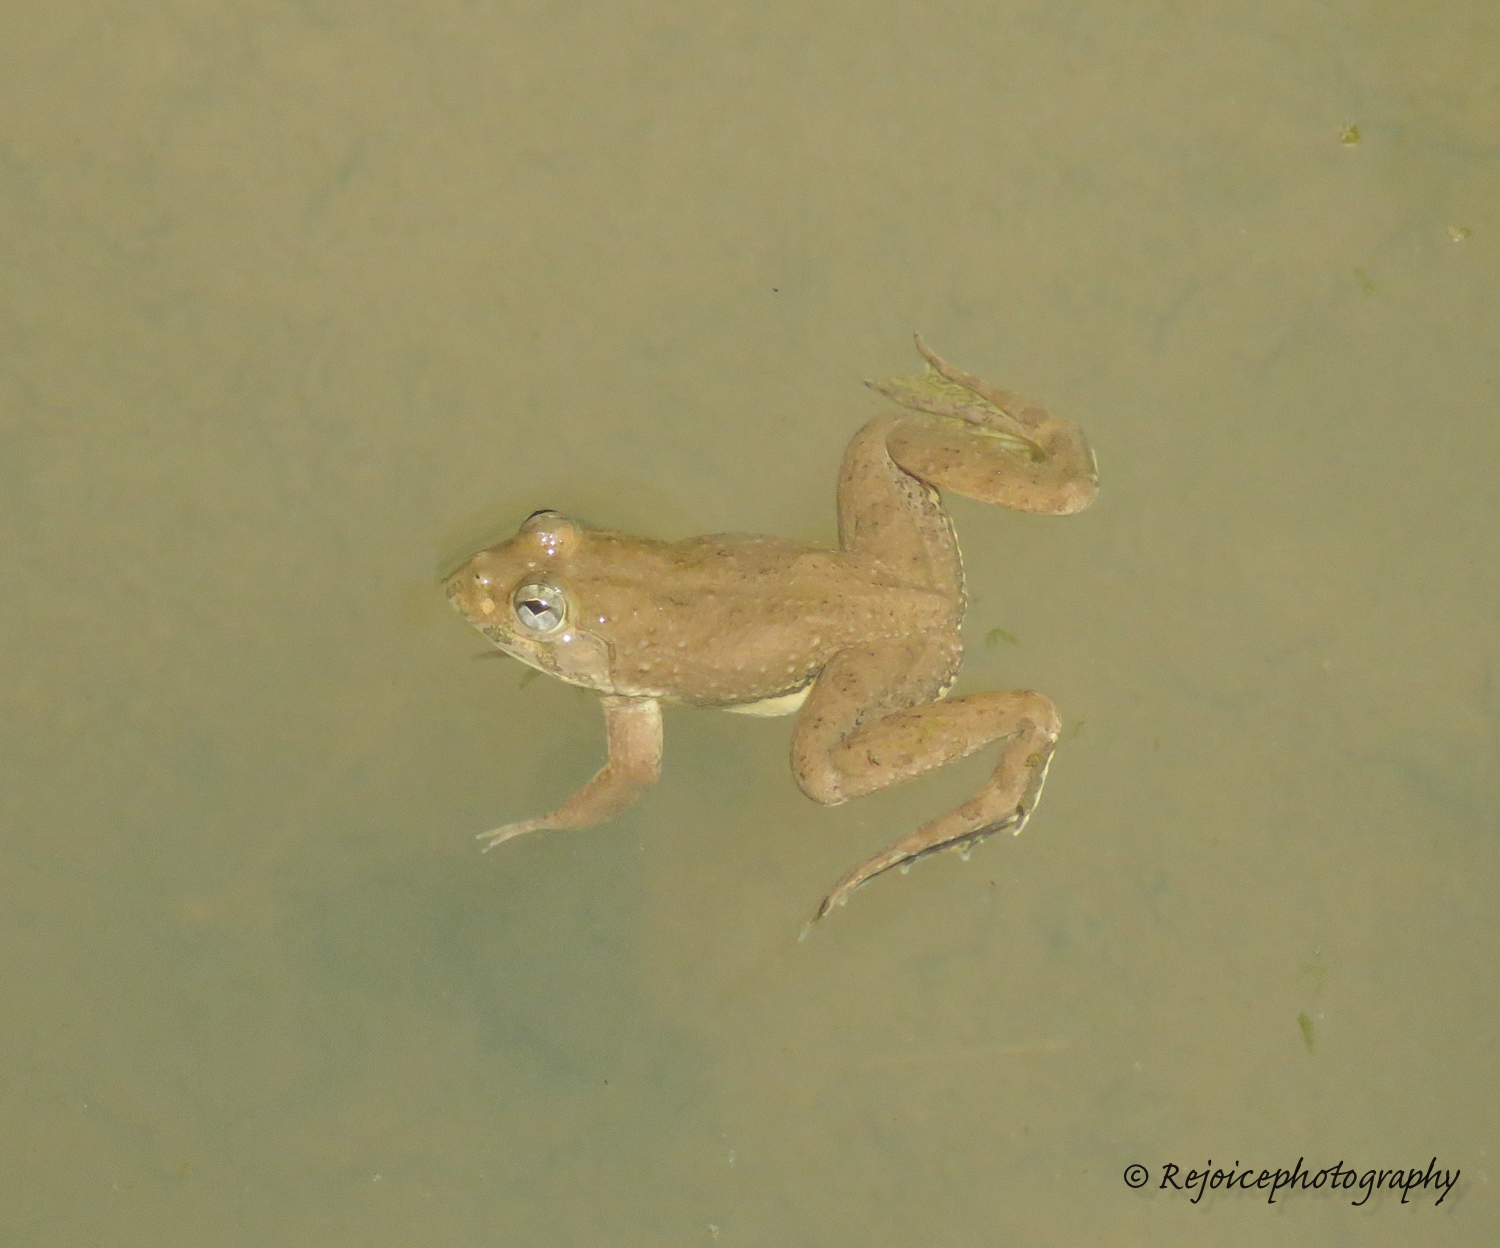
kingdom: Animalia
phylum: Chordata
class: Amphibia
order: Anura
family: Dicroglossidae
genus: Euphlyctis
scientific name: Euphlyctis cyanophlyctis
